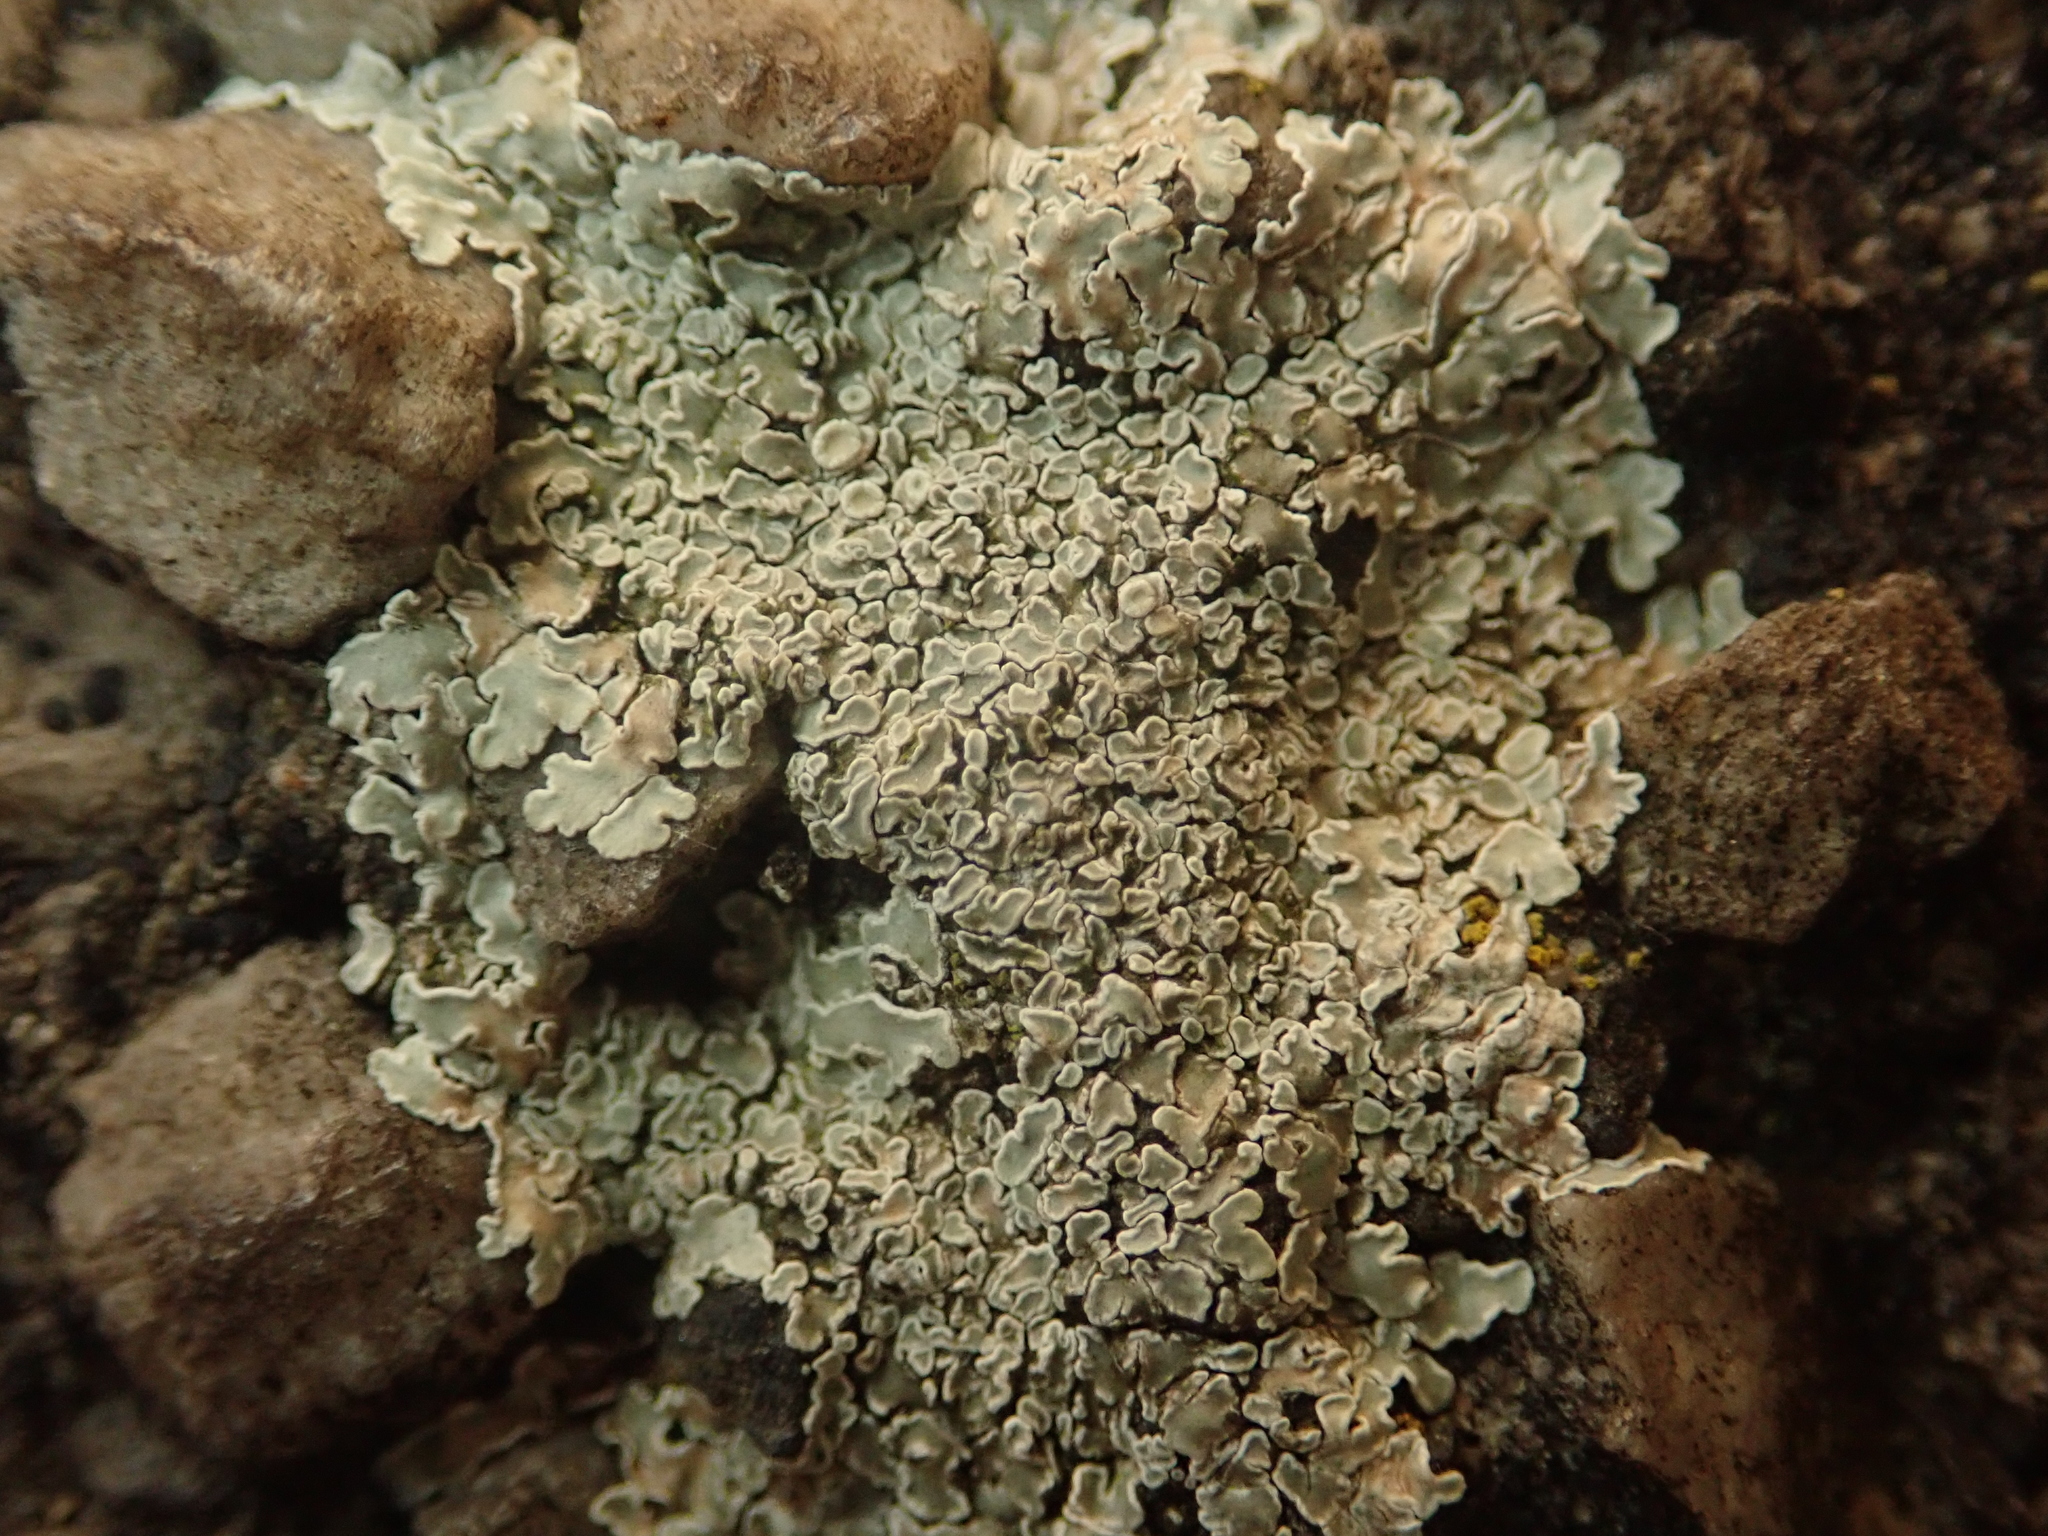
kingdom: Fungi
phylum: Ascomycota
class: Lecanoromycetes
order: Lecanorales
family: Lecanoraceae
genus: Protoparmeliopsis
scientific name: Protoparmeliopsis muralis
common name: Stonewall rim lichen
